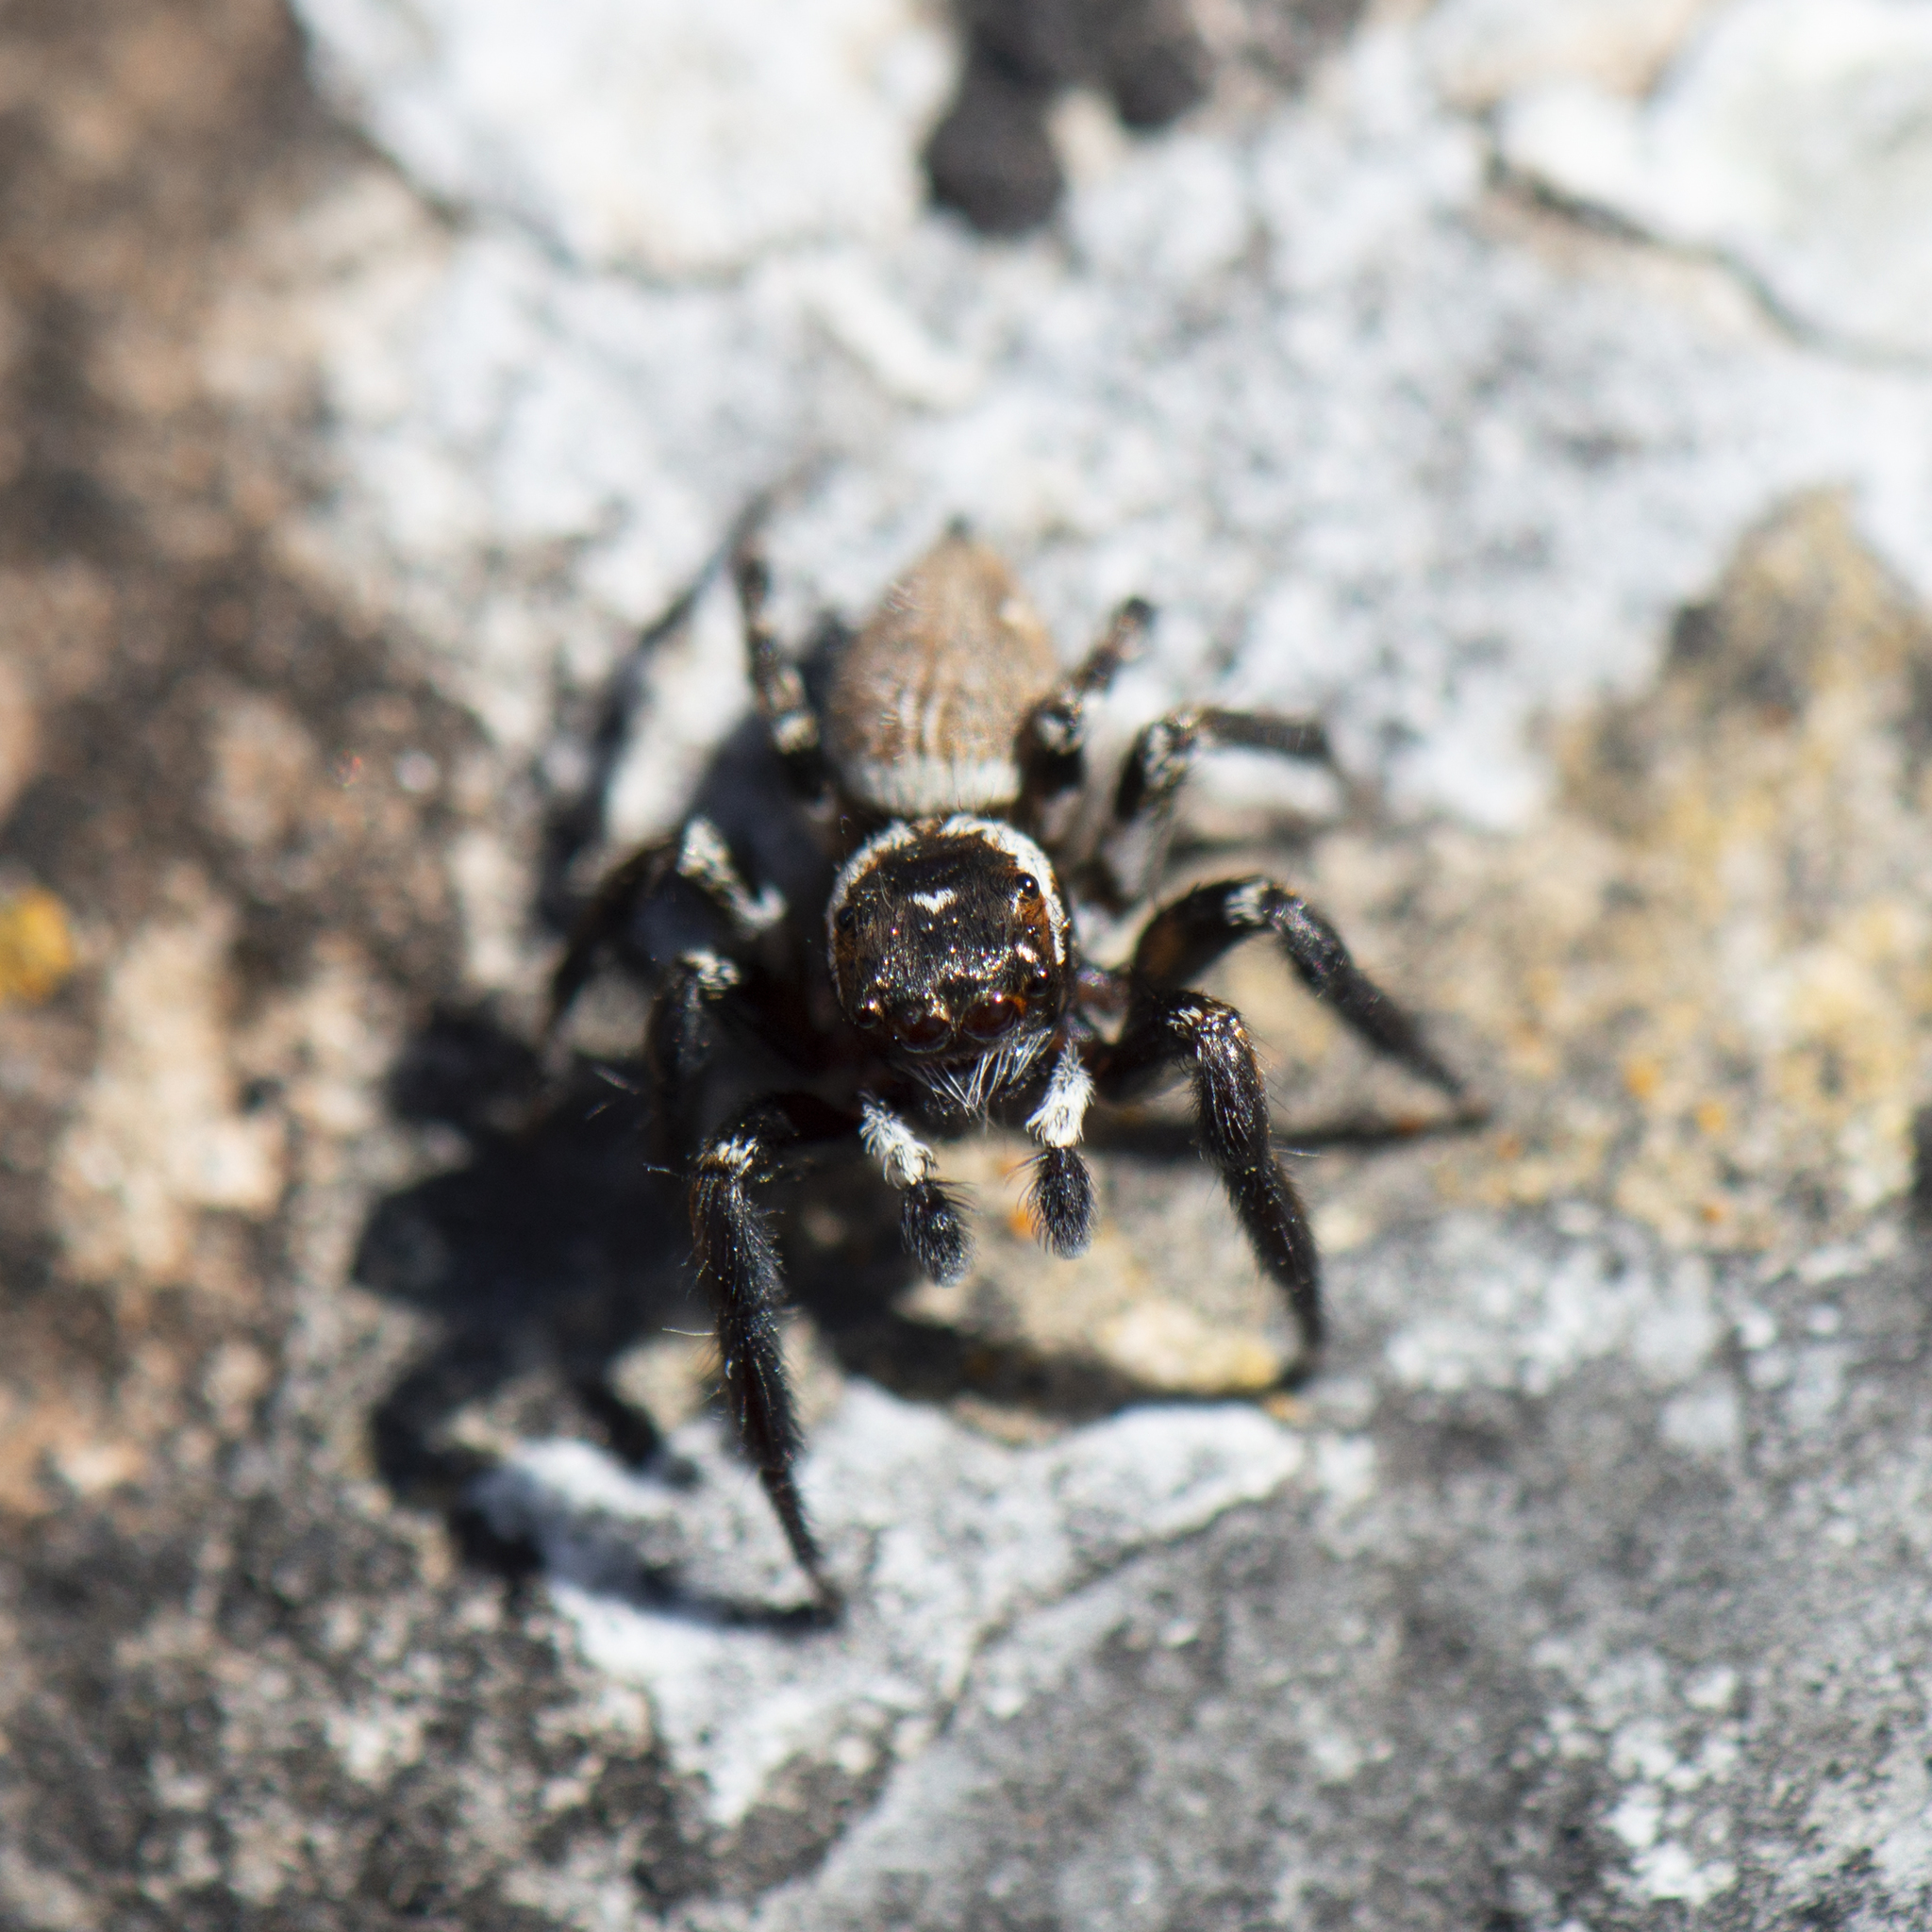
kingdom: Animalia
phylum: Arthropoda
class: Arachnida
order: Araneae
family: Salticidae
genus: Evarcha
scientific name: Evarcha jucunda
